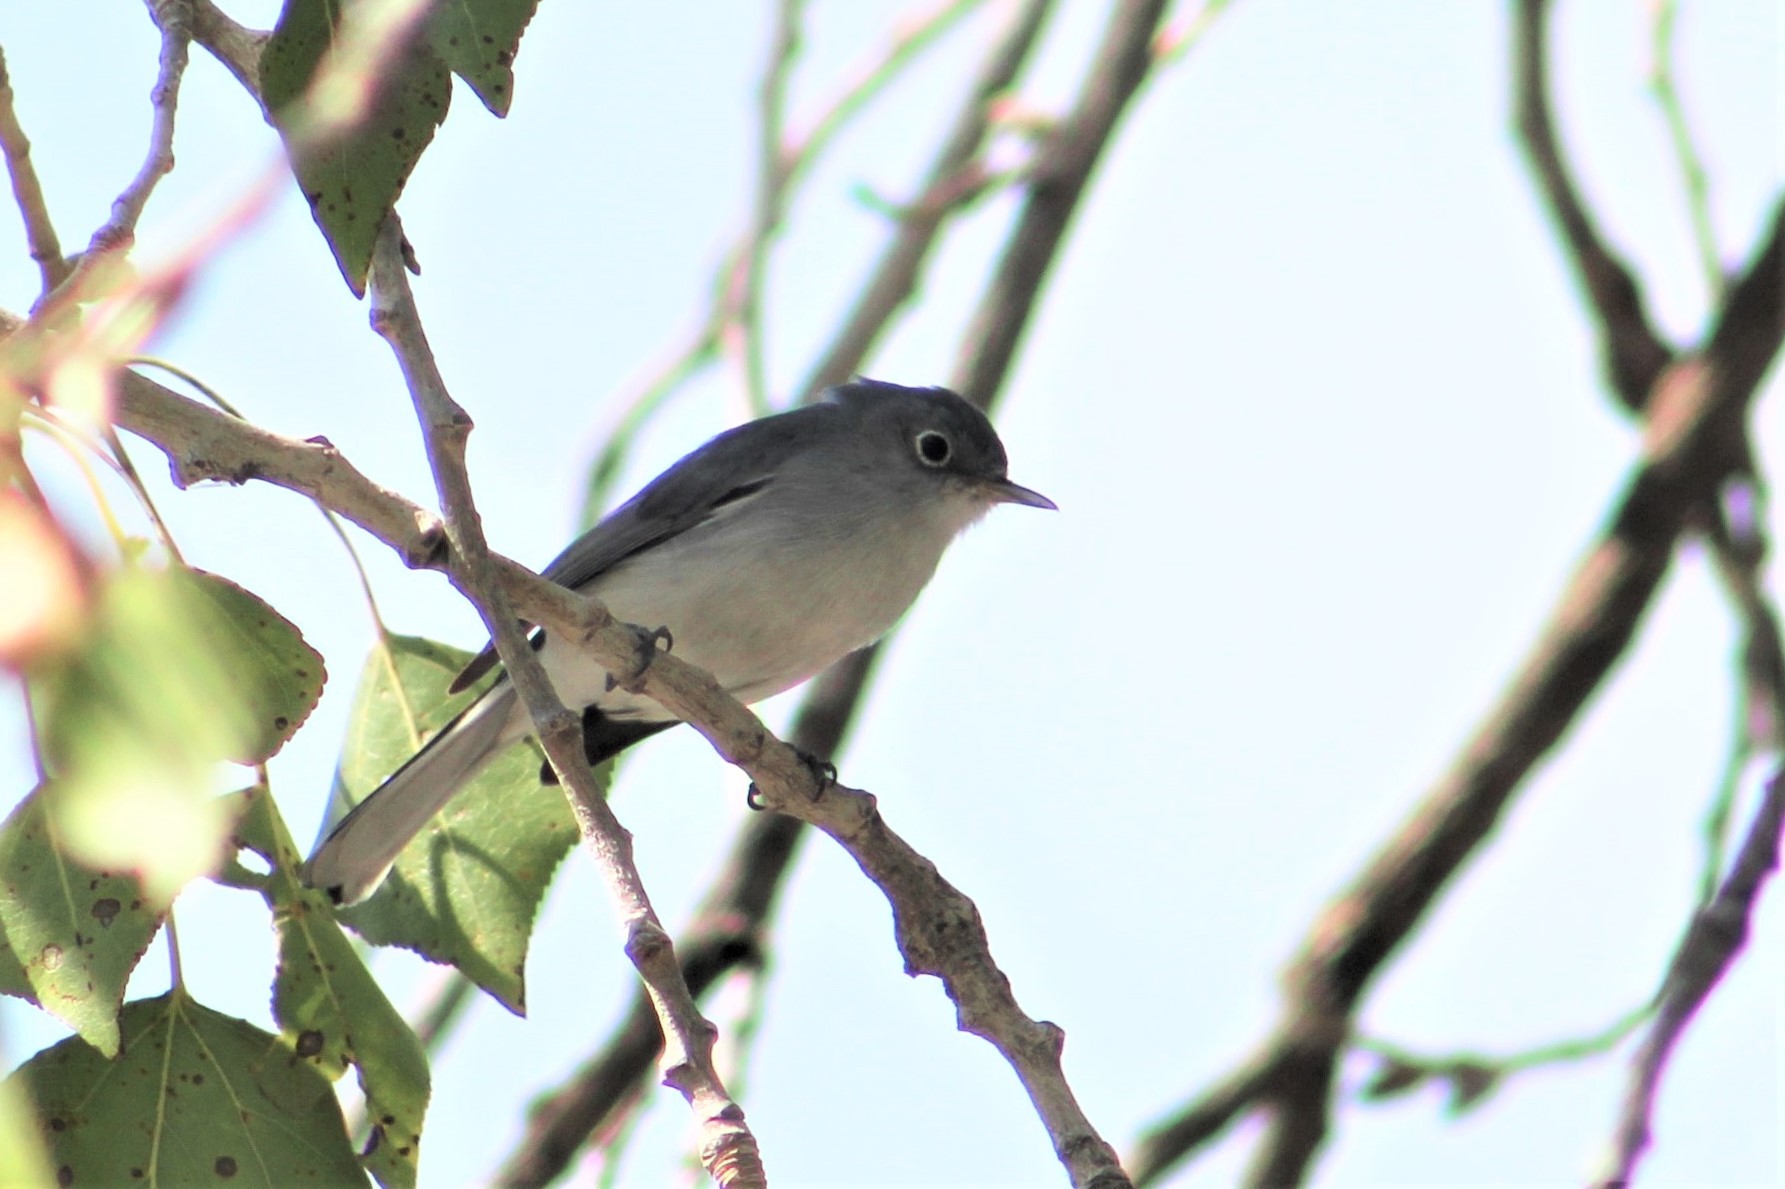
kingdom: Animalia
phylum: Chordata
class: Aves
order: Passeriformes
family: Polioptilidae
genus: Polioptila
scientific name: Polioptila caerulea
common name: Blue-gray gnatcatcher
